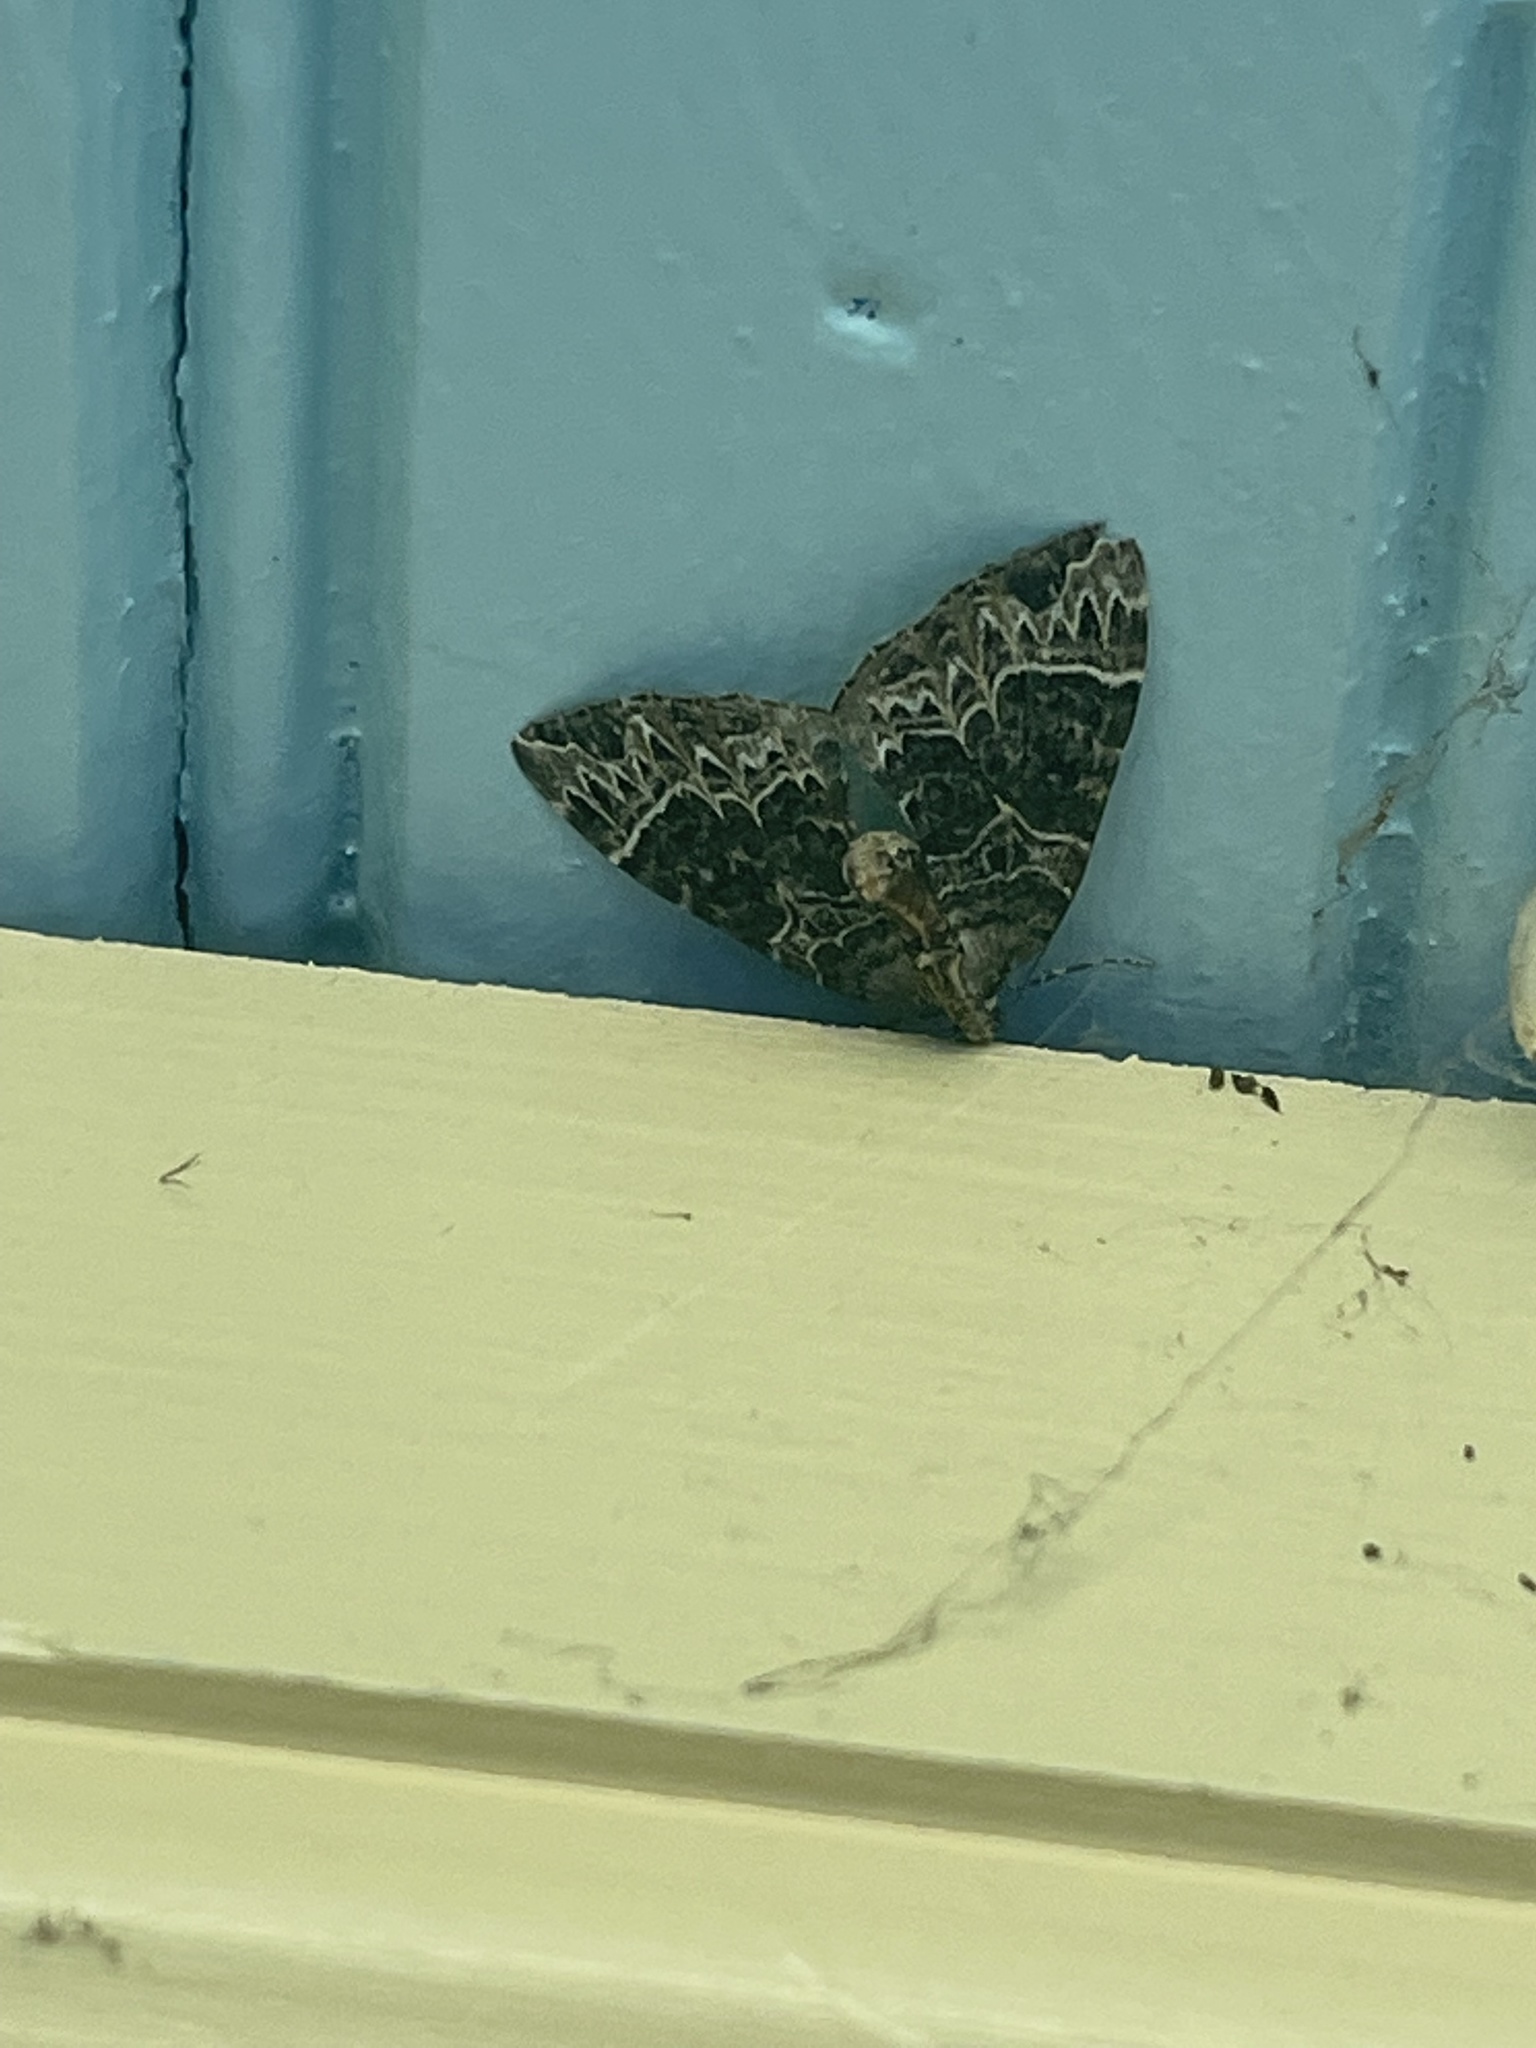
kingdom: Animalia
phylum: Arthropoda
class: Insecta
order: Lepidoptera
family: Geometridae
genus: Ecliptopera
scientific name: Ecliptopera silaceata
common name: Small phoenix
